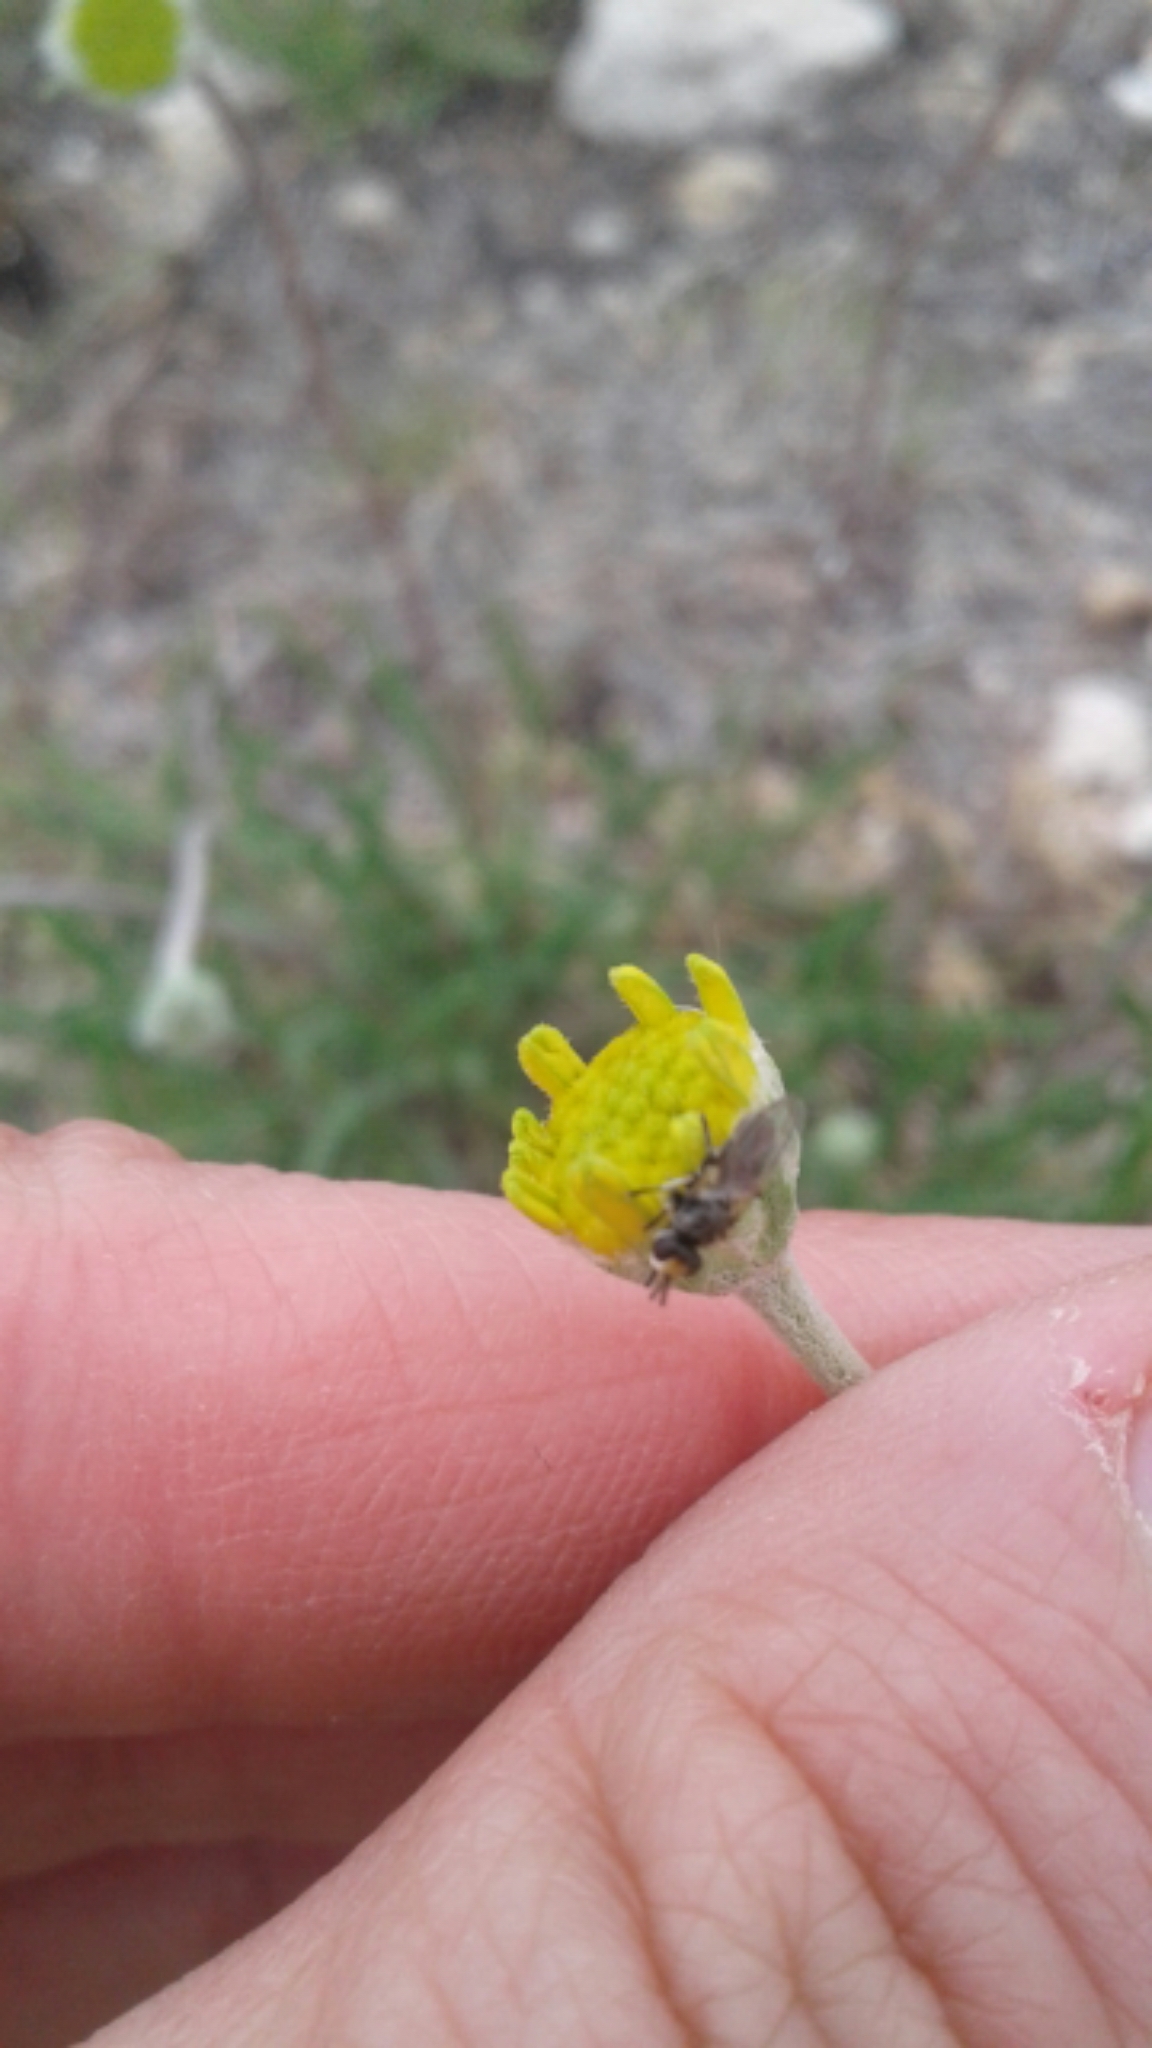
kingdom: Plantae
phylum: Tracheophyta
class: Magnoliopsida
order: Asterales
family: Asteraceae
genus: Tetraneuris
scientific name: Tetraneuris scaposa
